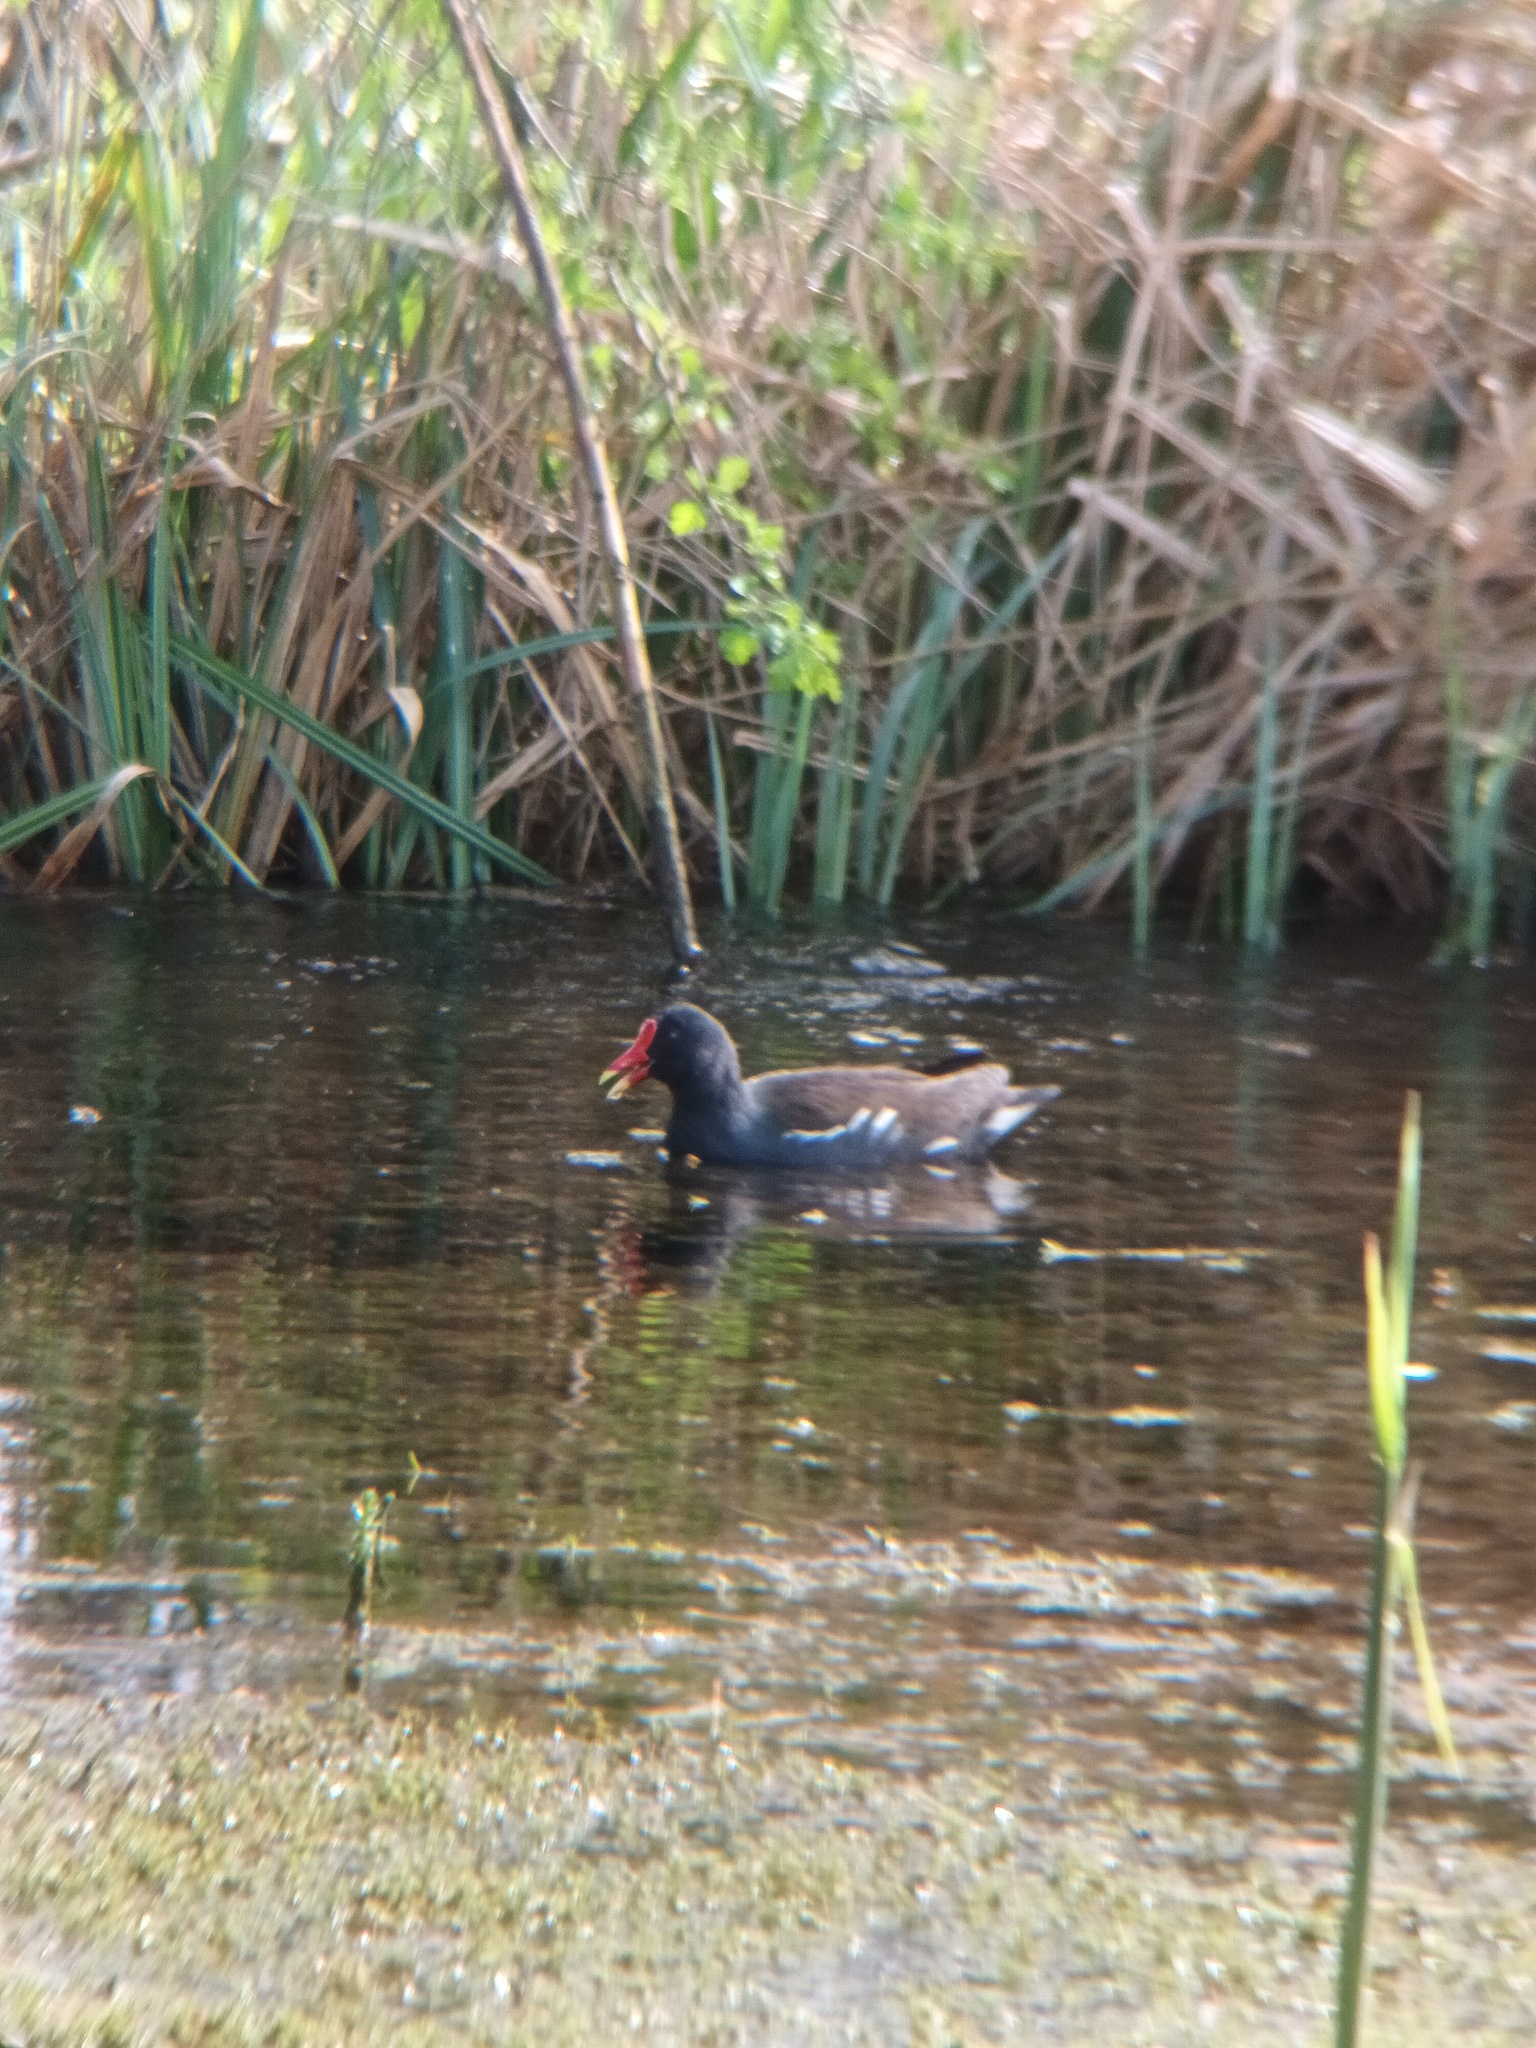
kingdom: Animalia
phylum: Chordata
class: Aves
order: Gruiformes
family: Rallidae
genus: Gallinula
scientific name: Gallinula chloropus
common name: Common moorhen
